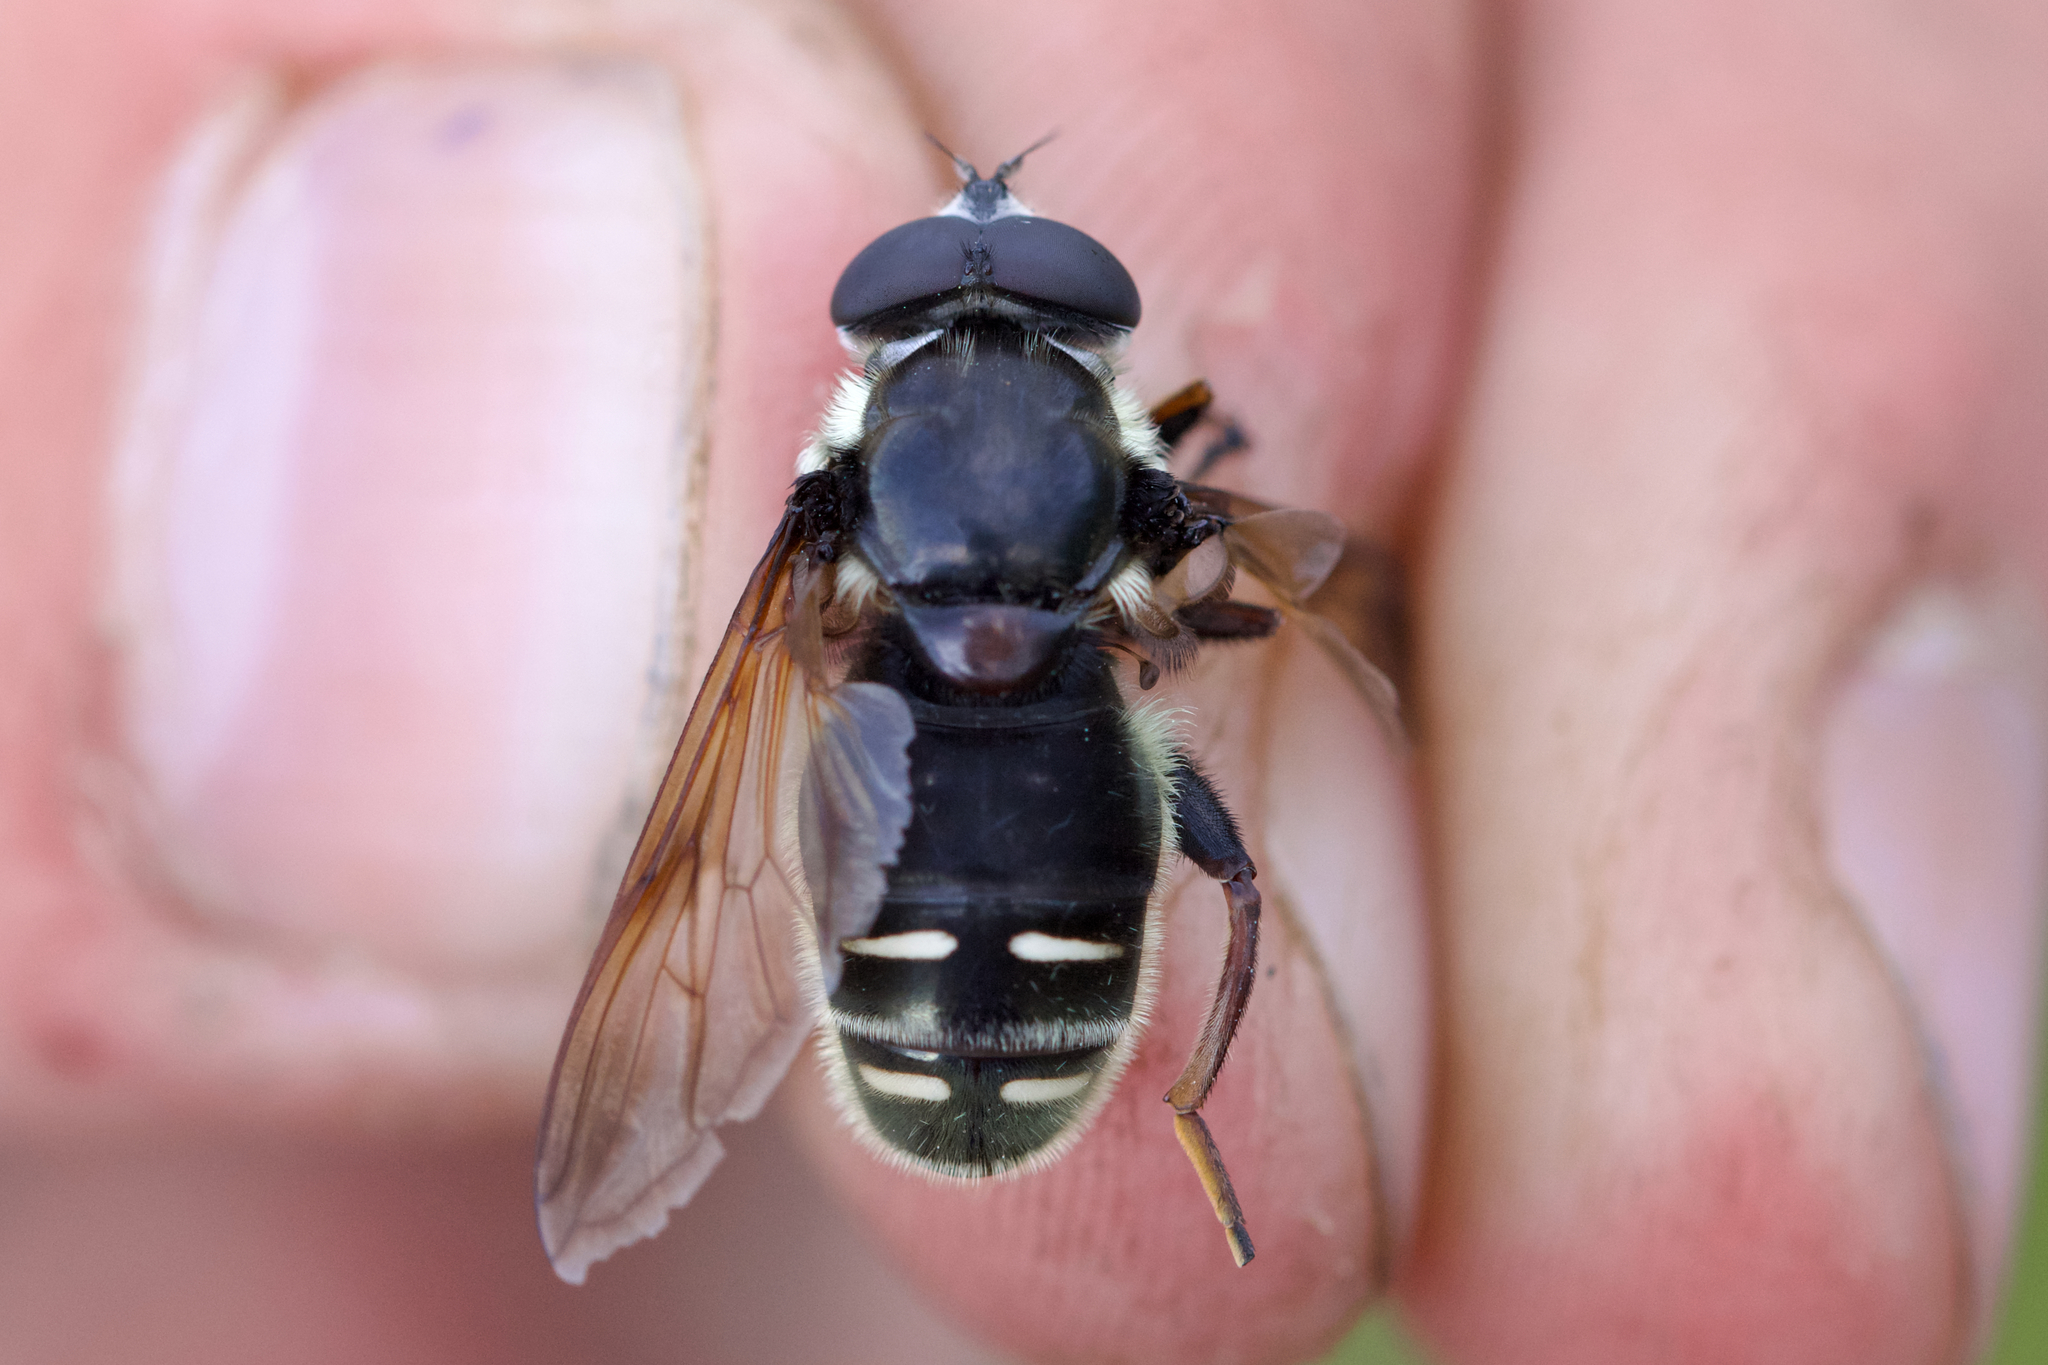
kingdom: Animalia
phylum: Arthropoda
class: Insecta
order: Diptera
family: Syrphidae
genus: Sericomyia
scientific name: Sericomyia militaris
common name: Narrow-banded pond fly
